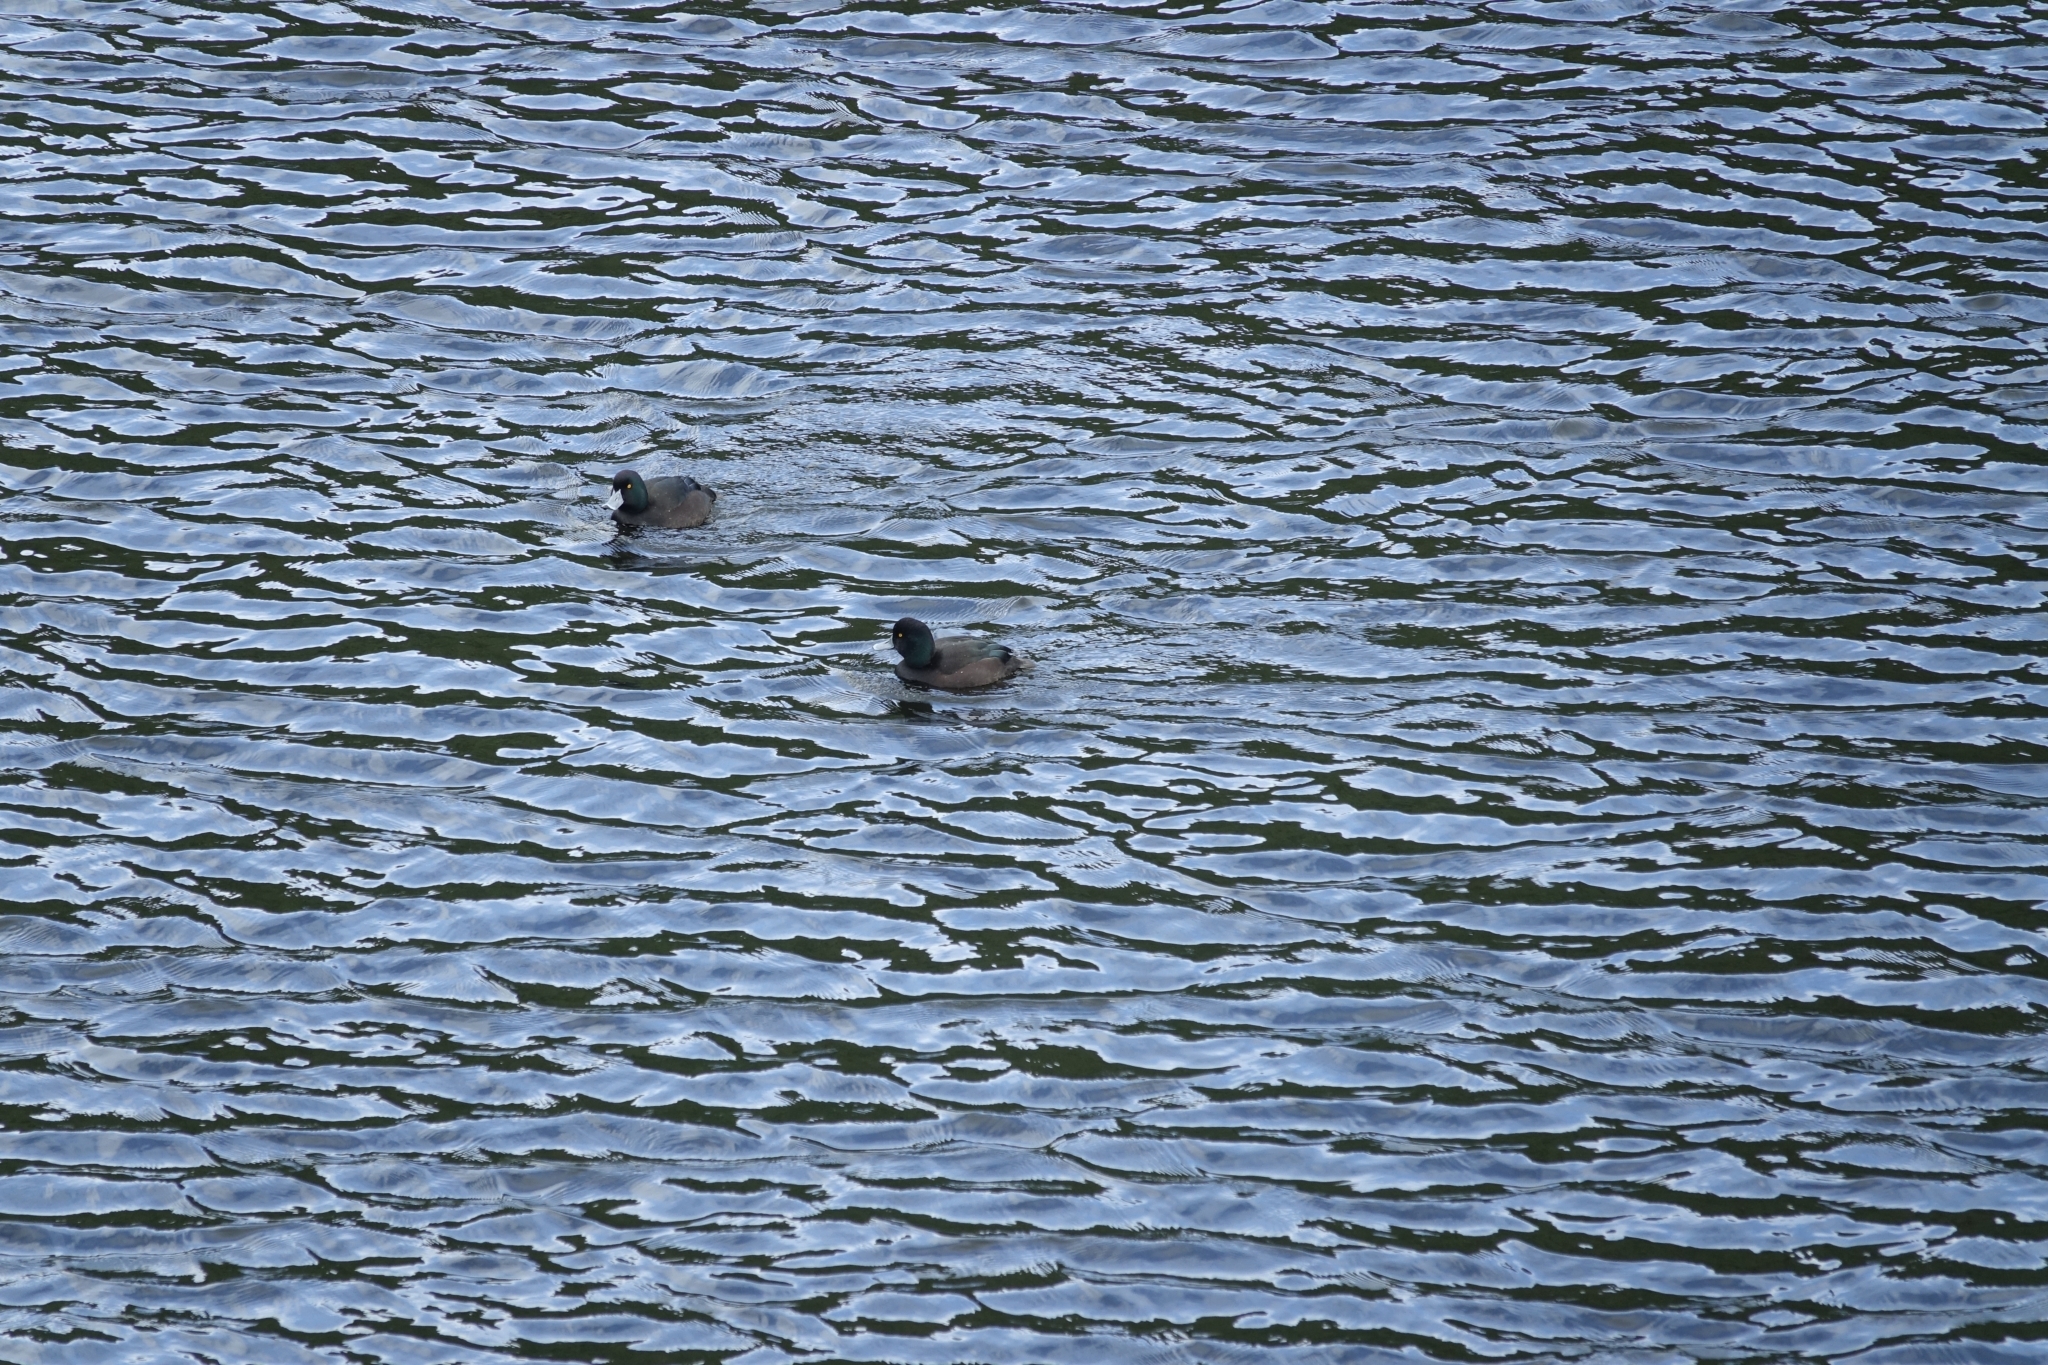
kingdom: Animalia
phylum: Chordata
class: Aves
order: Anseriformes
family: Anatidae
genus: Aythya
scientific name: Aythya novaeseelandiae
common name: New zealand scaup
